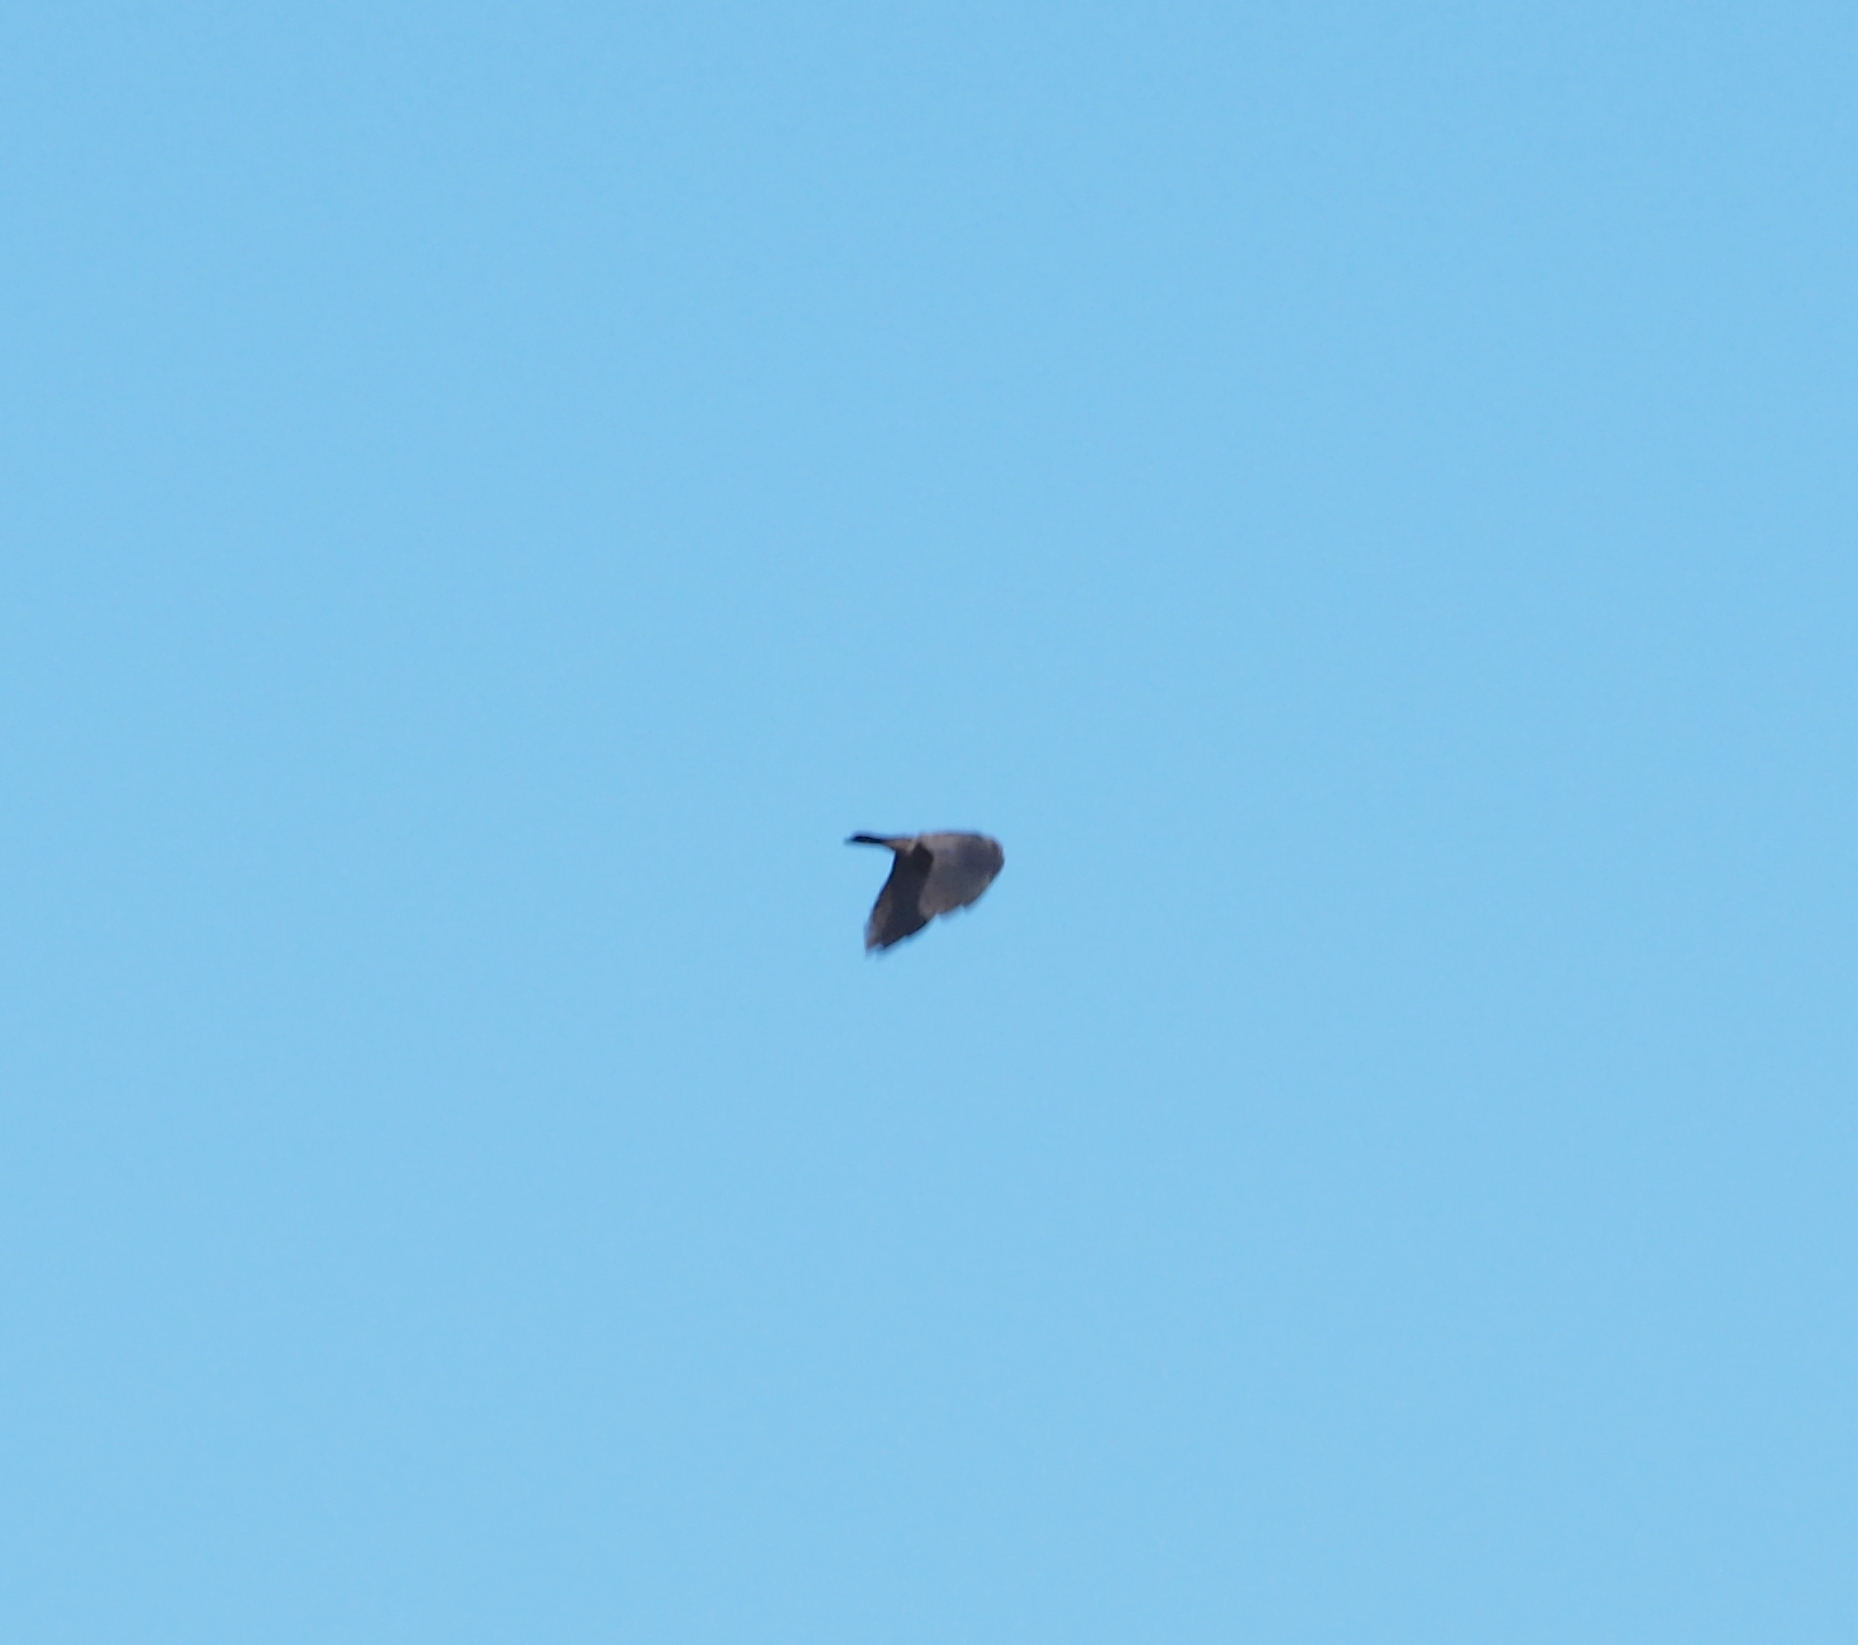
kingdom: Animalia
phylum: Chordata
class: Aves
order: Passeriformes
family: Corvidae
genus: Coloeus
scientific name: Coloeus monedula
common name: Western jackdaw
